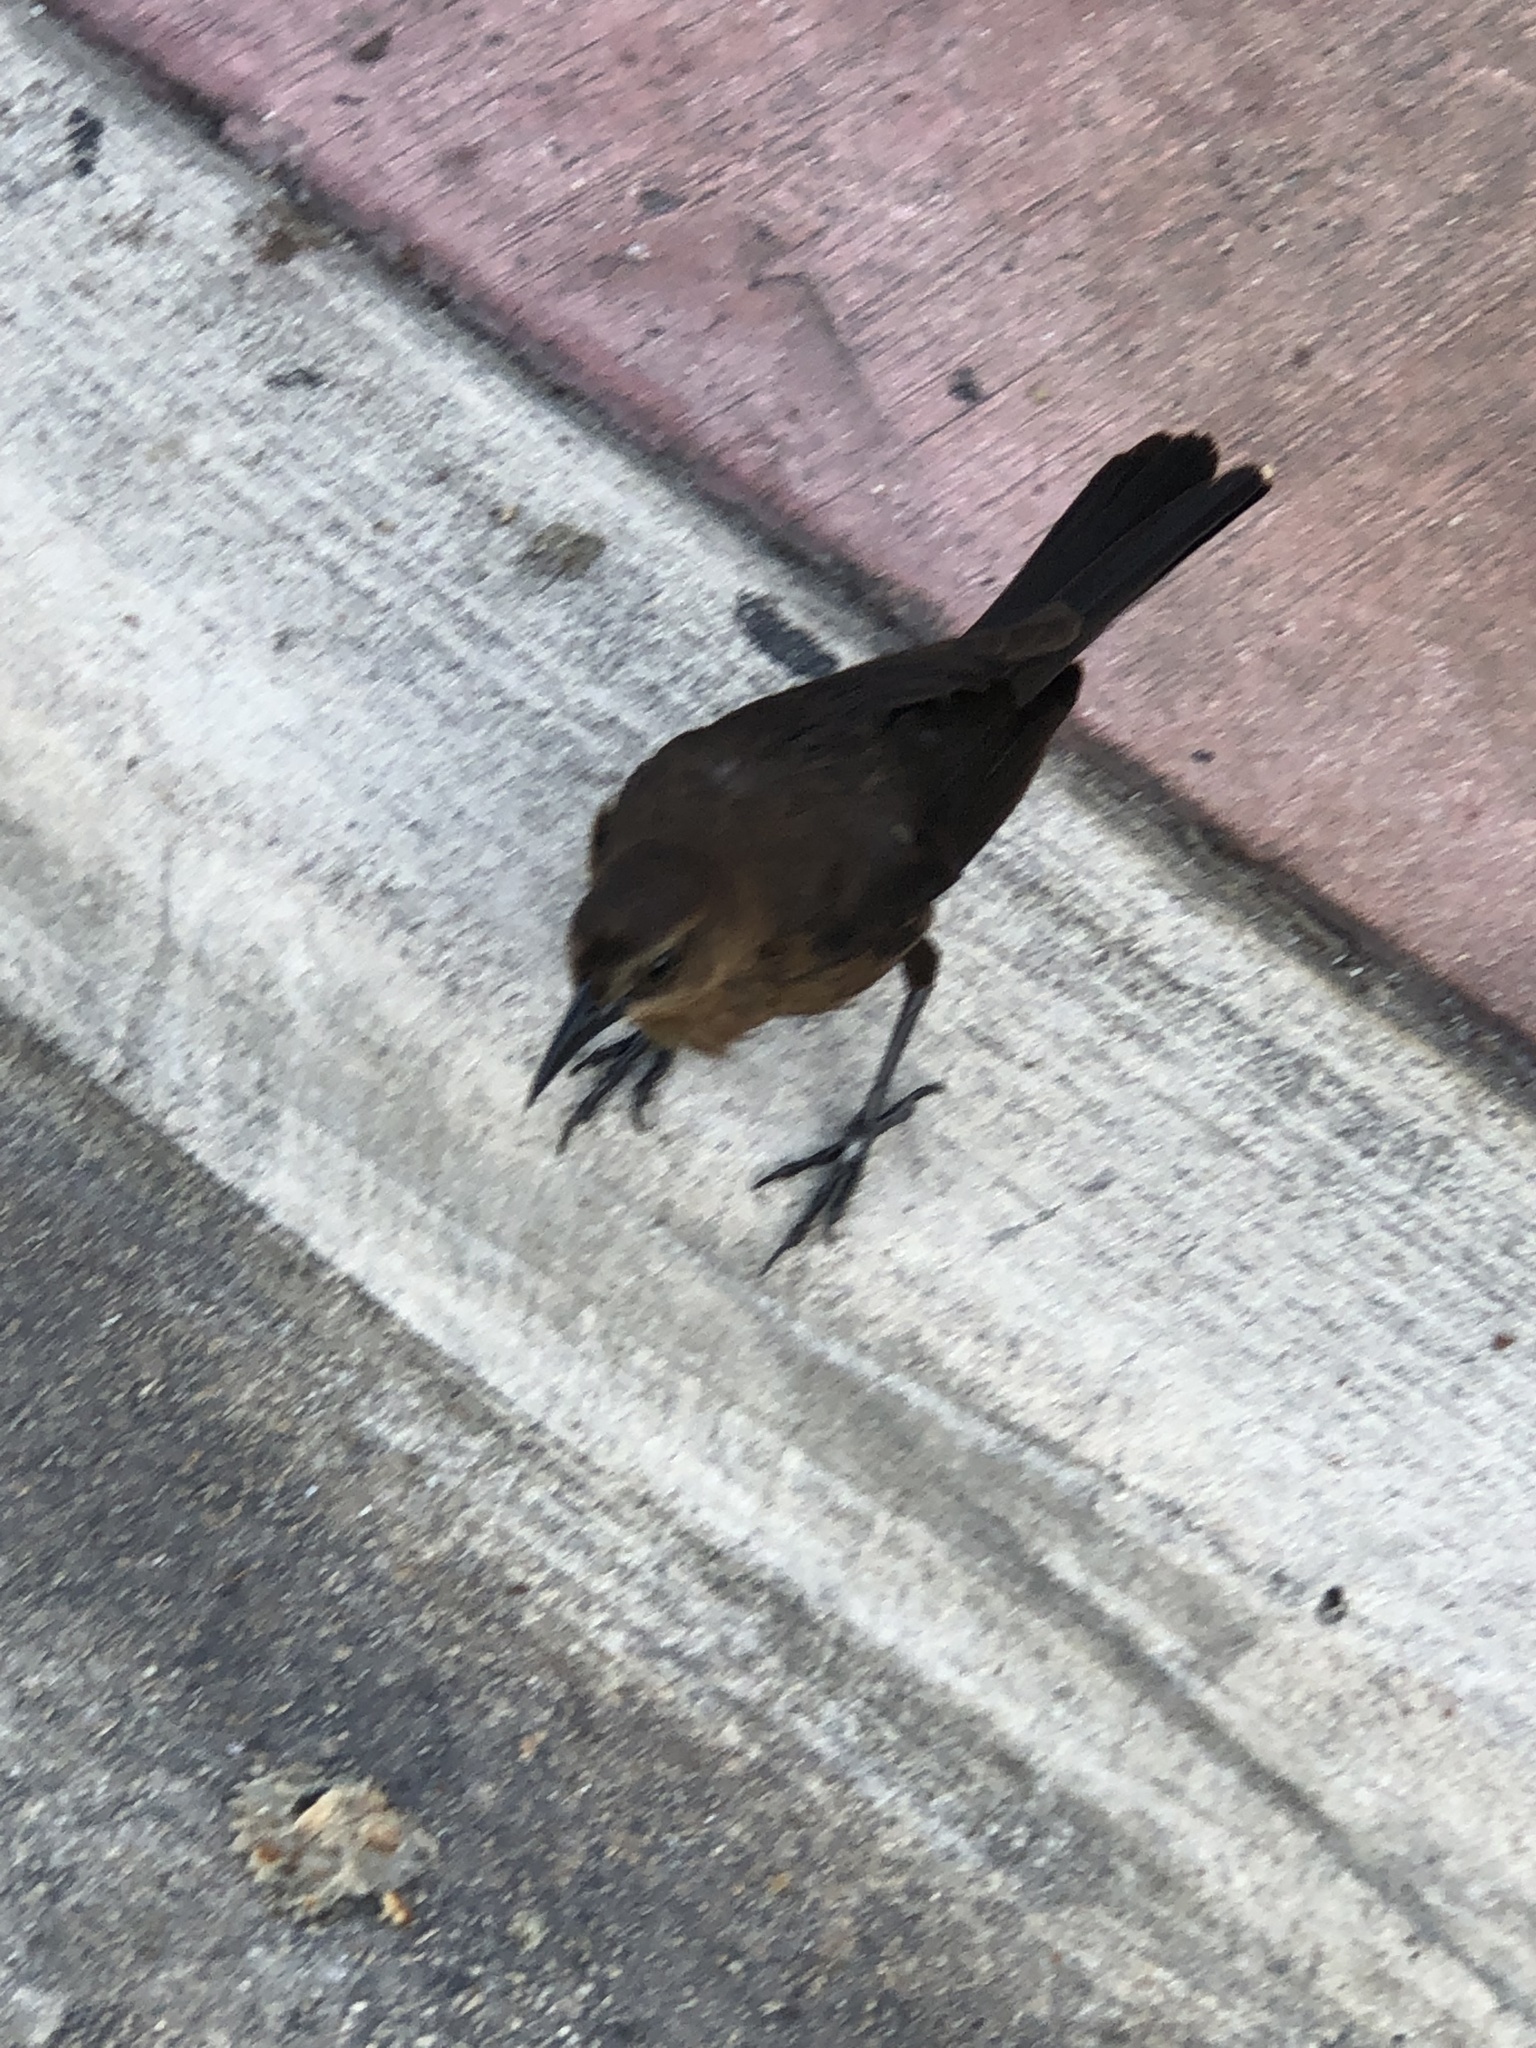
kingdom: Animalia
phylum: Chordata
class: Aves
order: Passeriformes
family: Icteridae
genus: Quiscalus
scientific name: Quiscalus major
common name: Boat-tailed grackle
